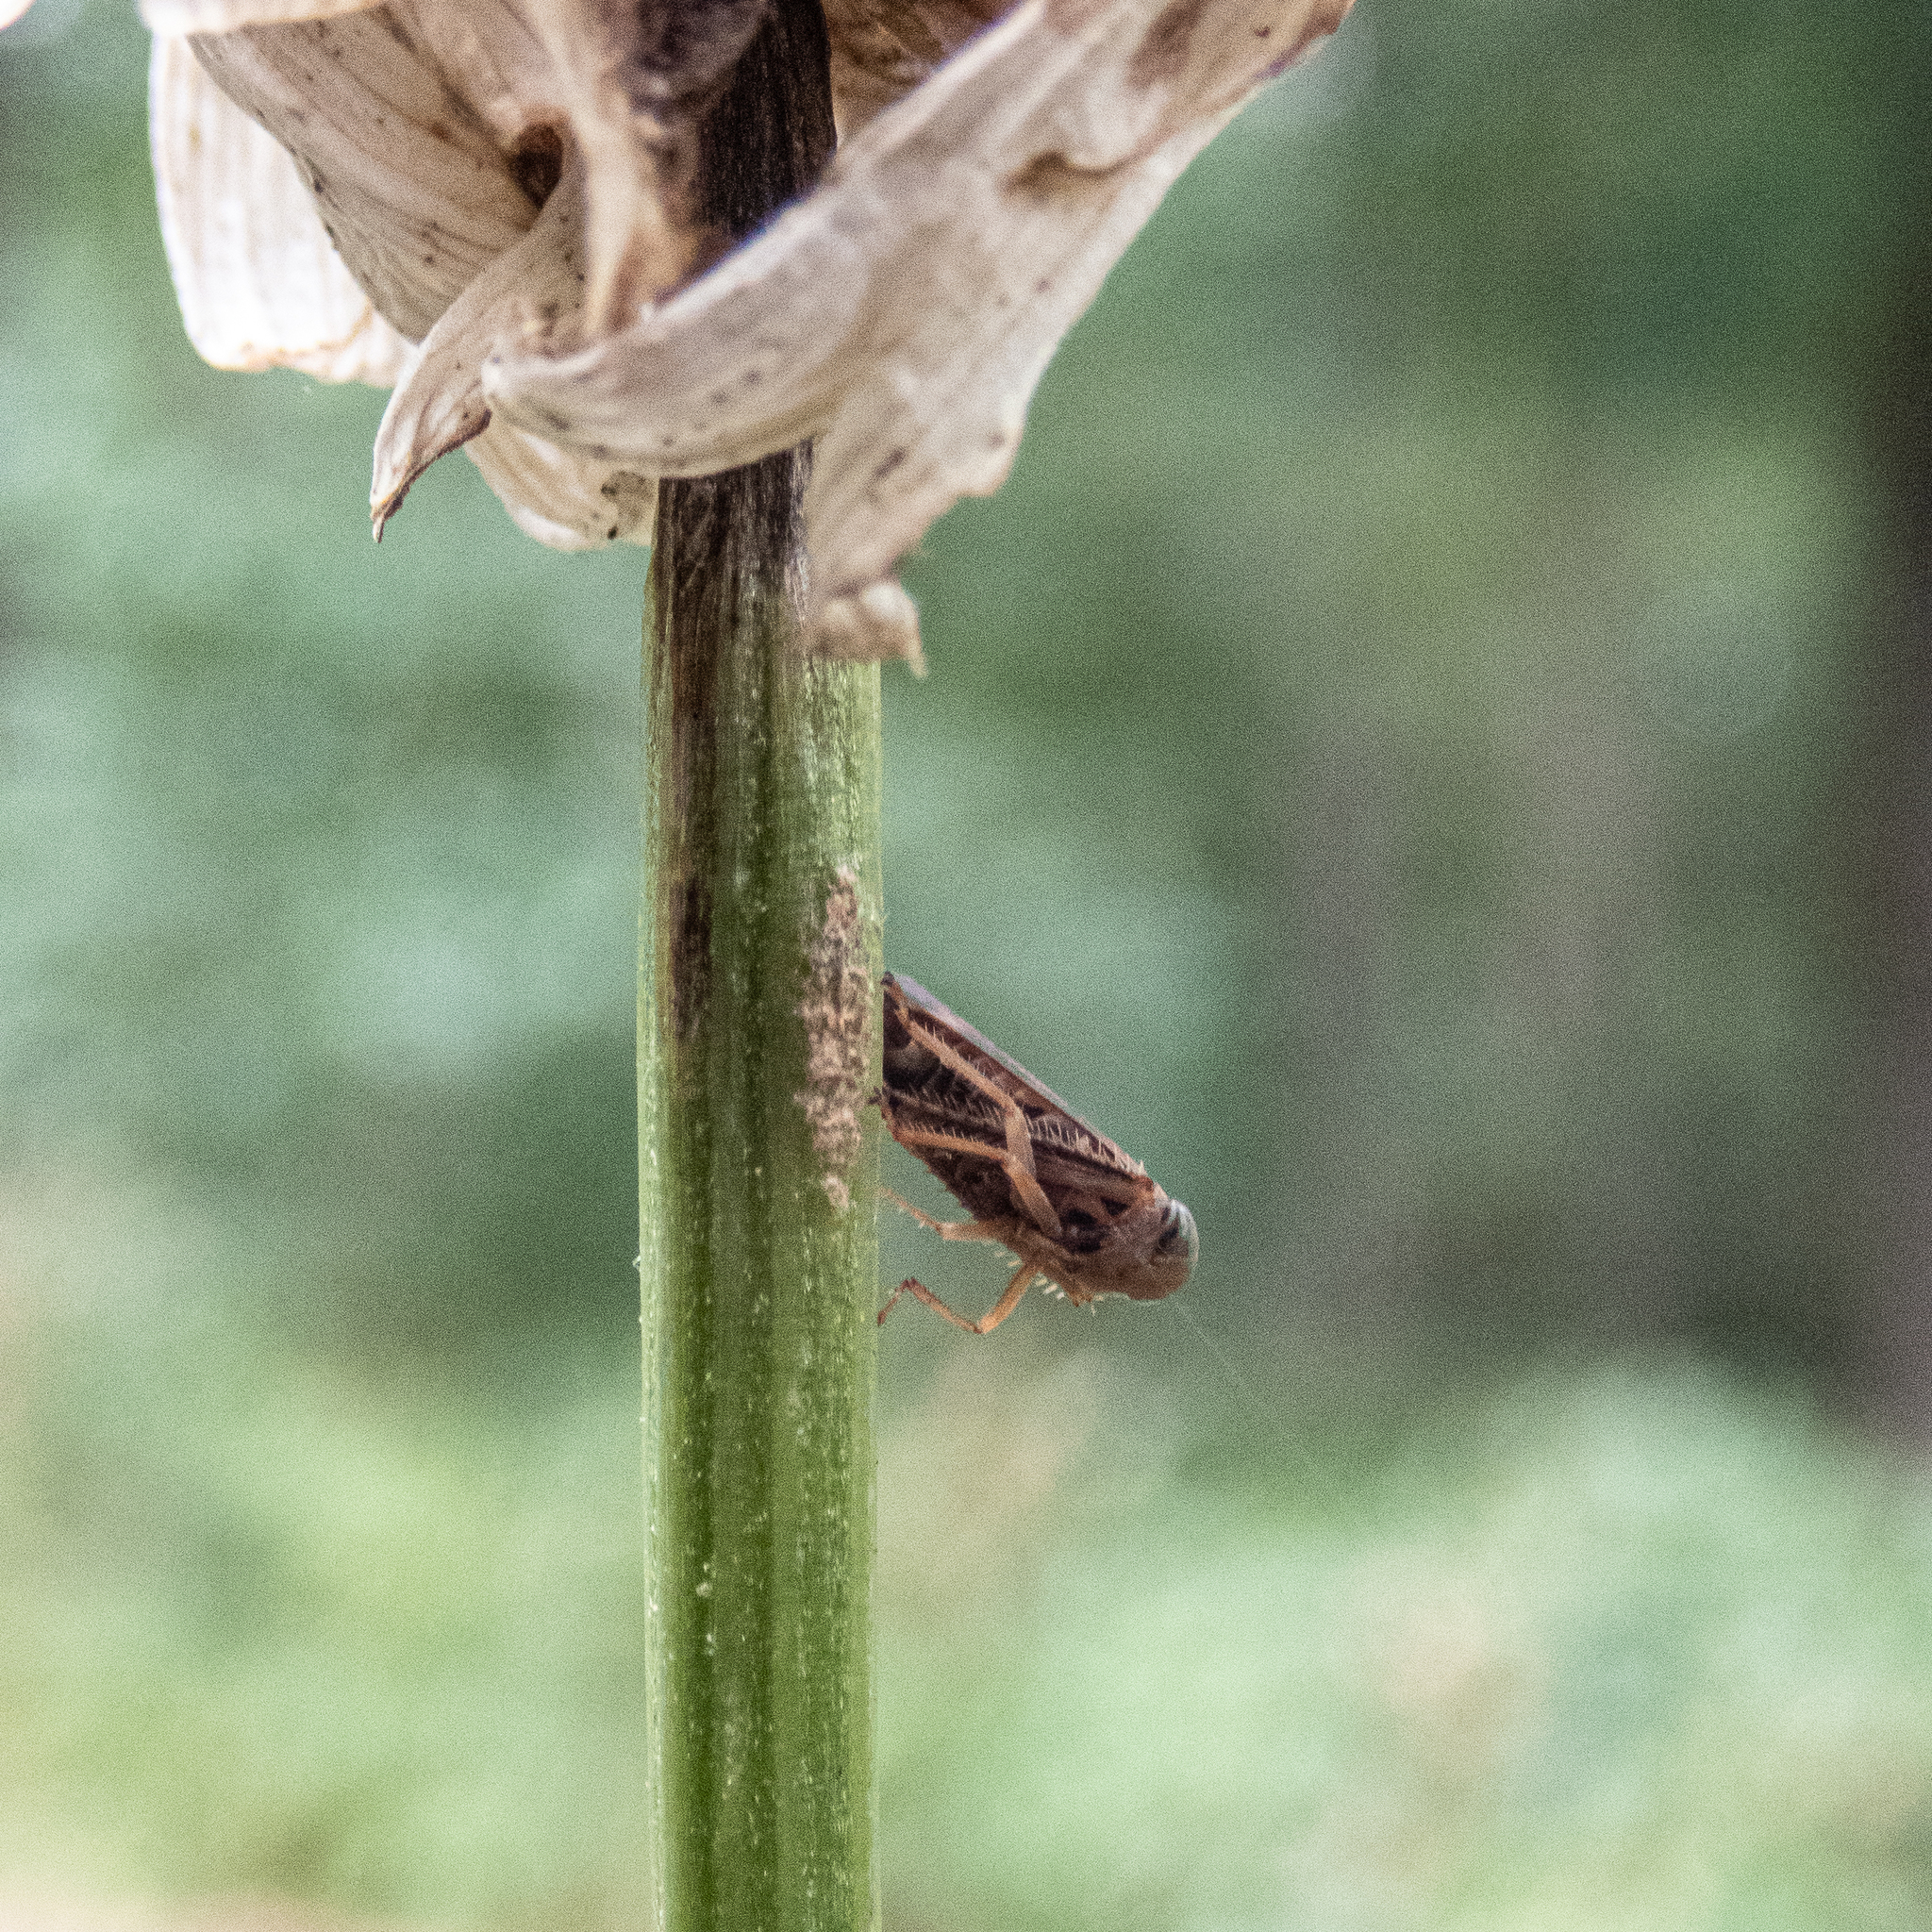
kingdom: Animalia
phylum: Arthropoda
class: Insecta
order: Hemiptera
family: Cicadellidae
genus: Jikradia
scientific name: Jikradia olitoria
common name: Coppery leafhopper
